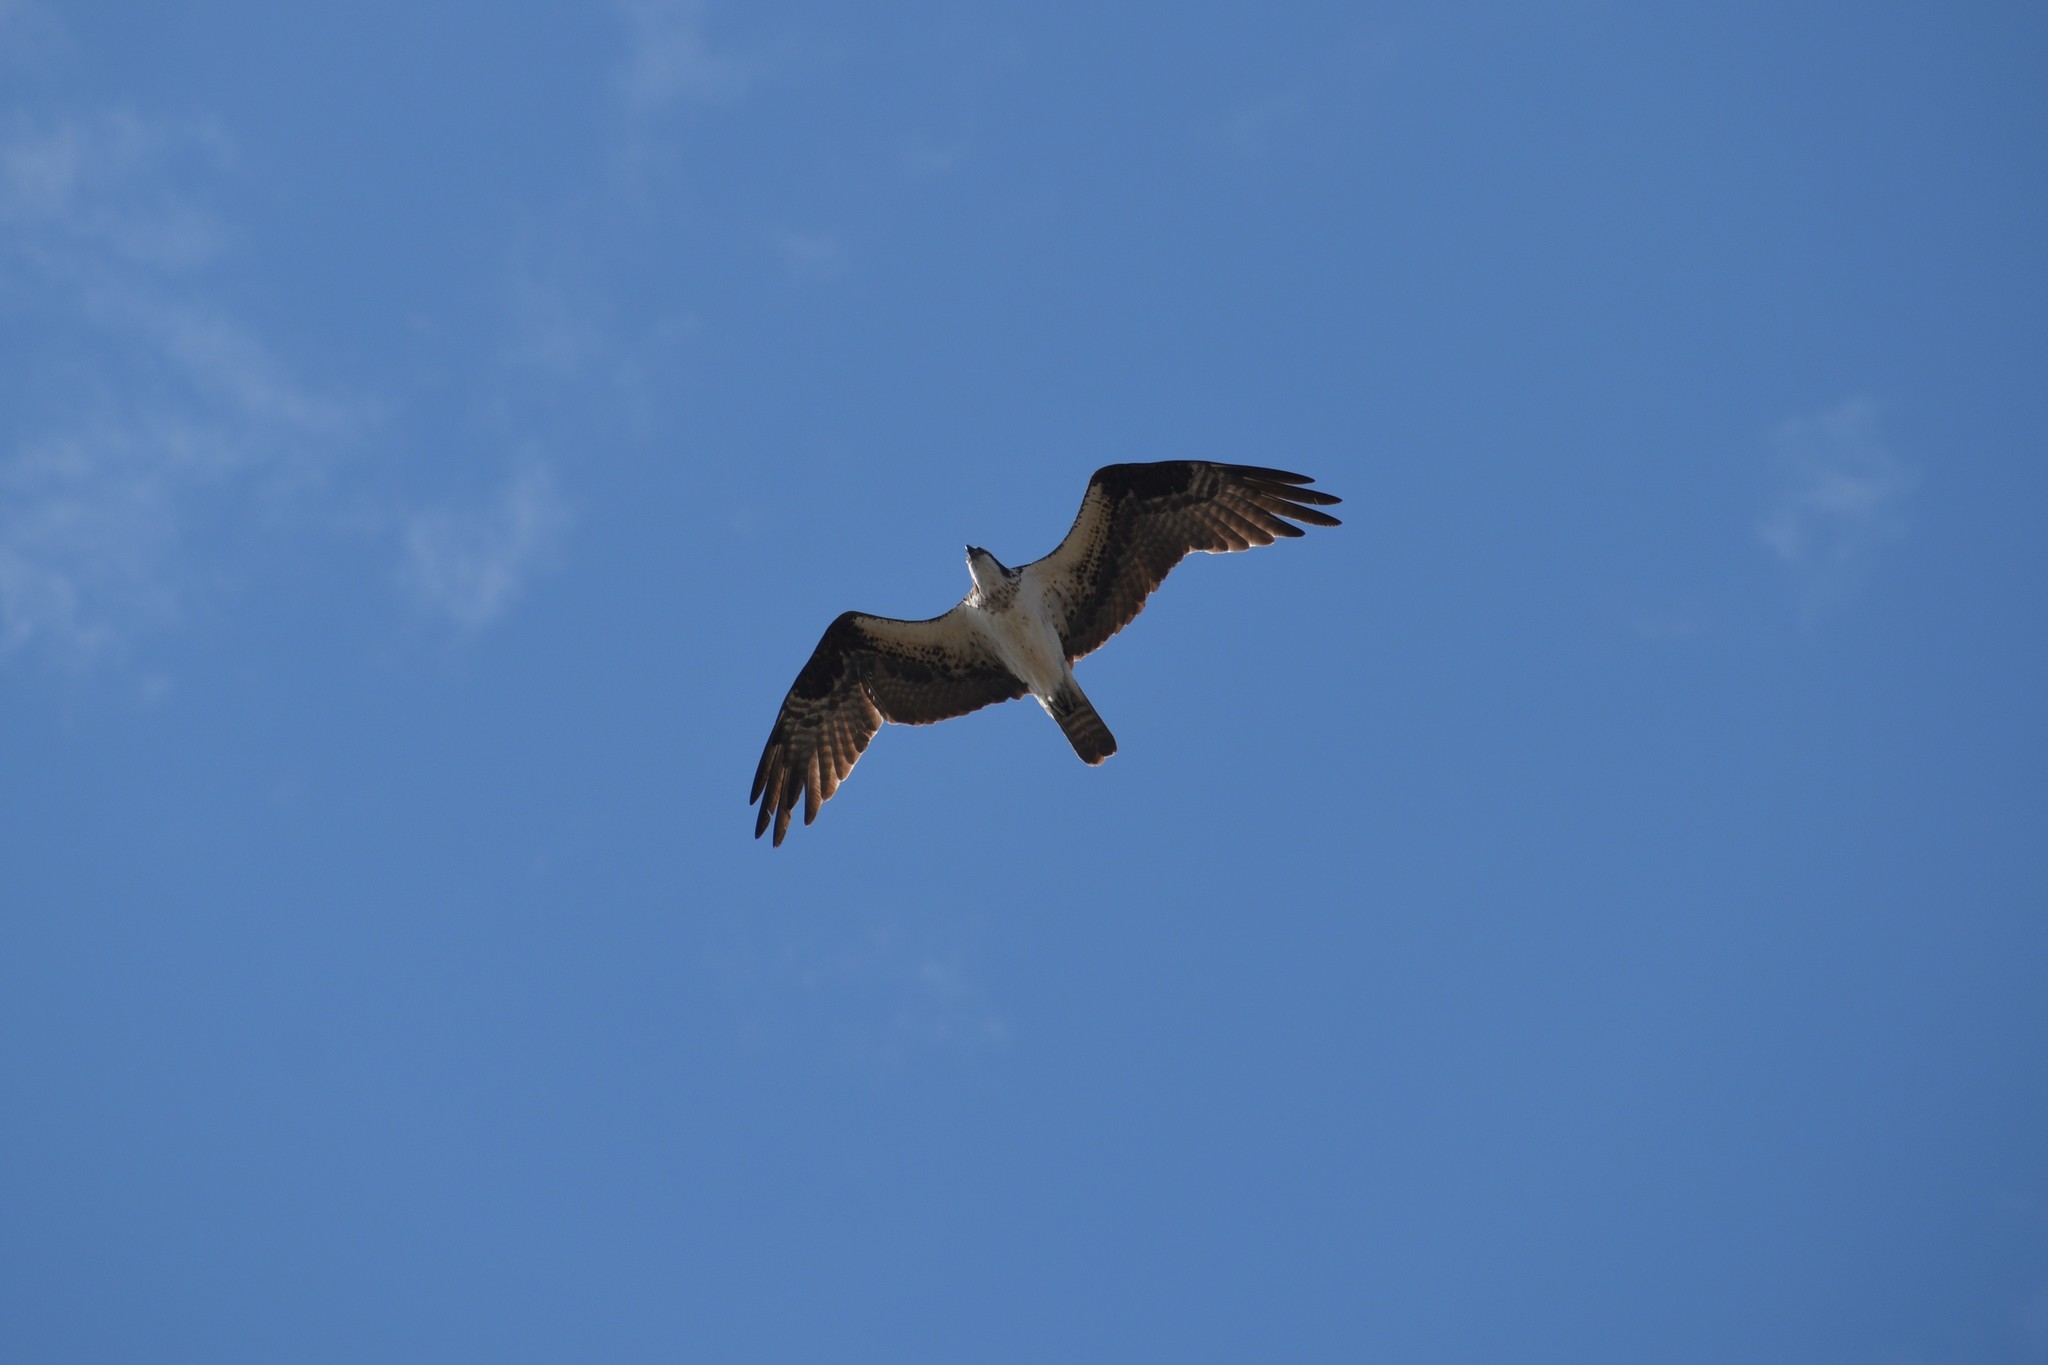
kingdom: Animalia
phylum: Chordata
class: Aves
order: Accipitriformes
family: Pandionidae
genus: Pandion
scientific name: Pandion haliaetus
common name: Osprey
